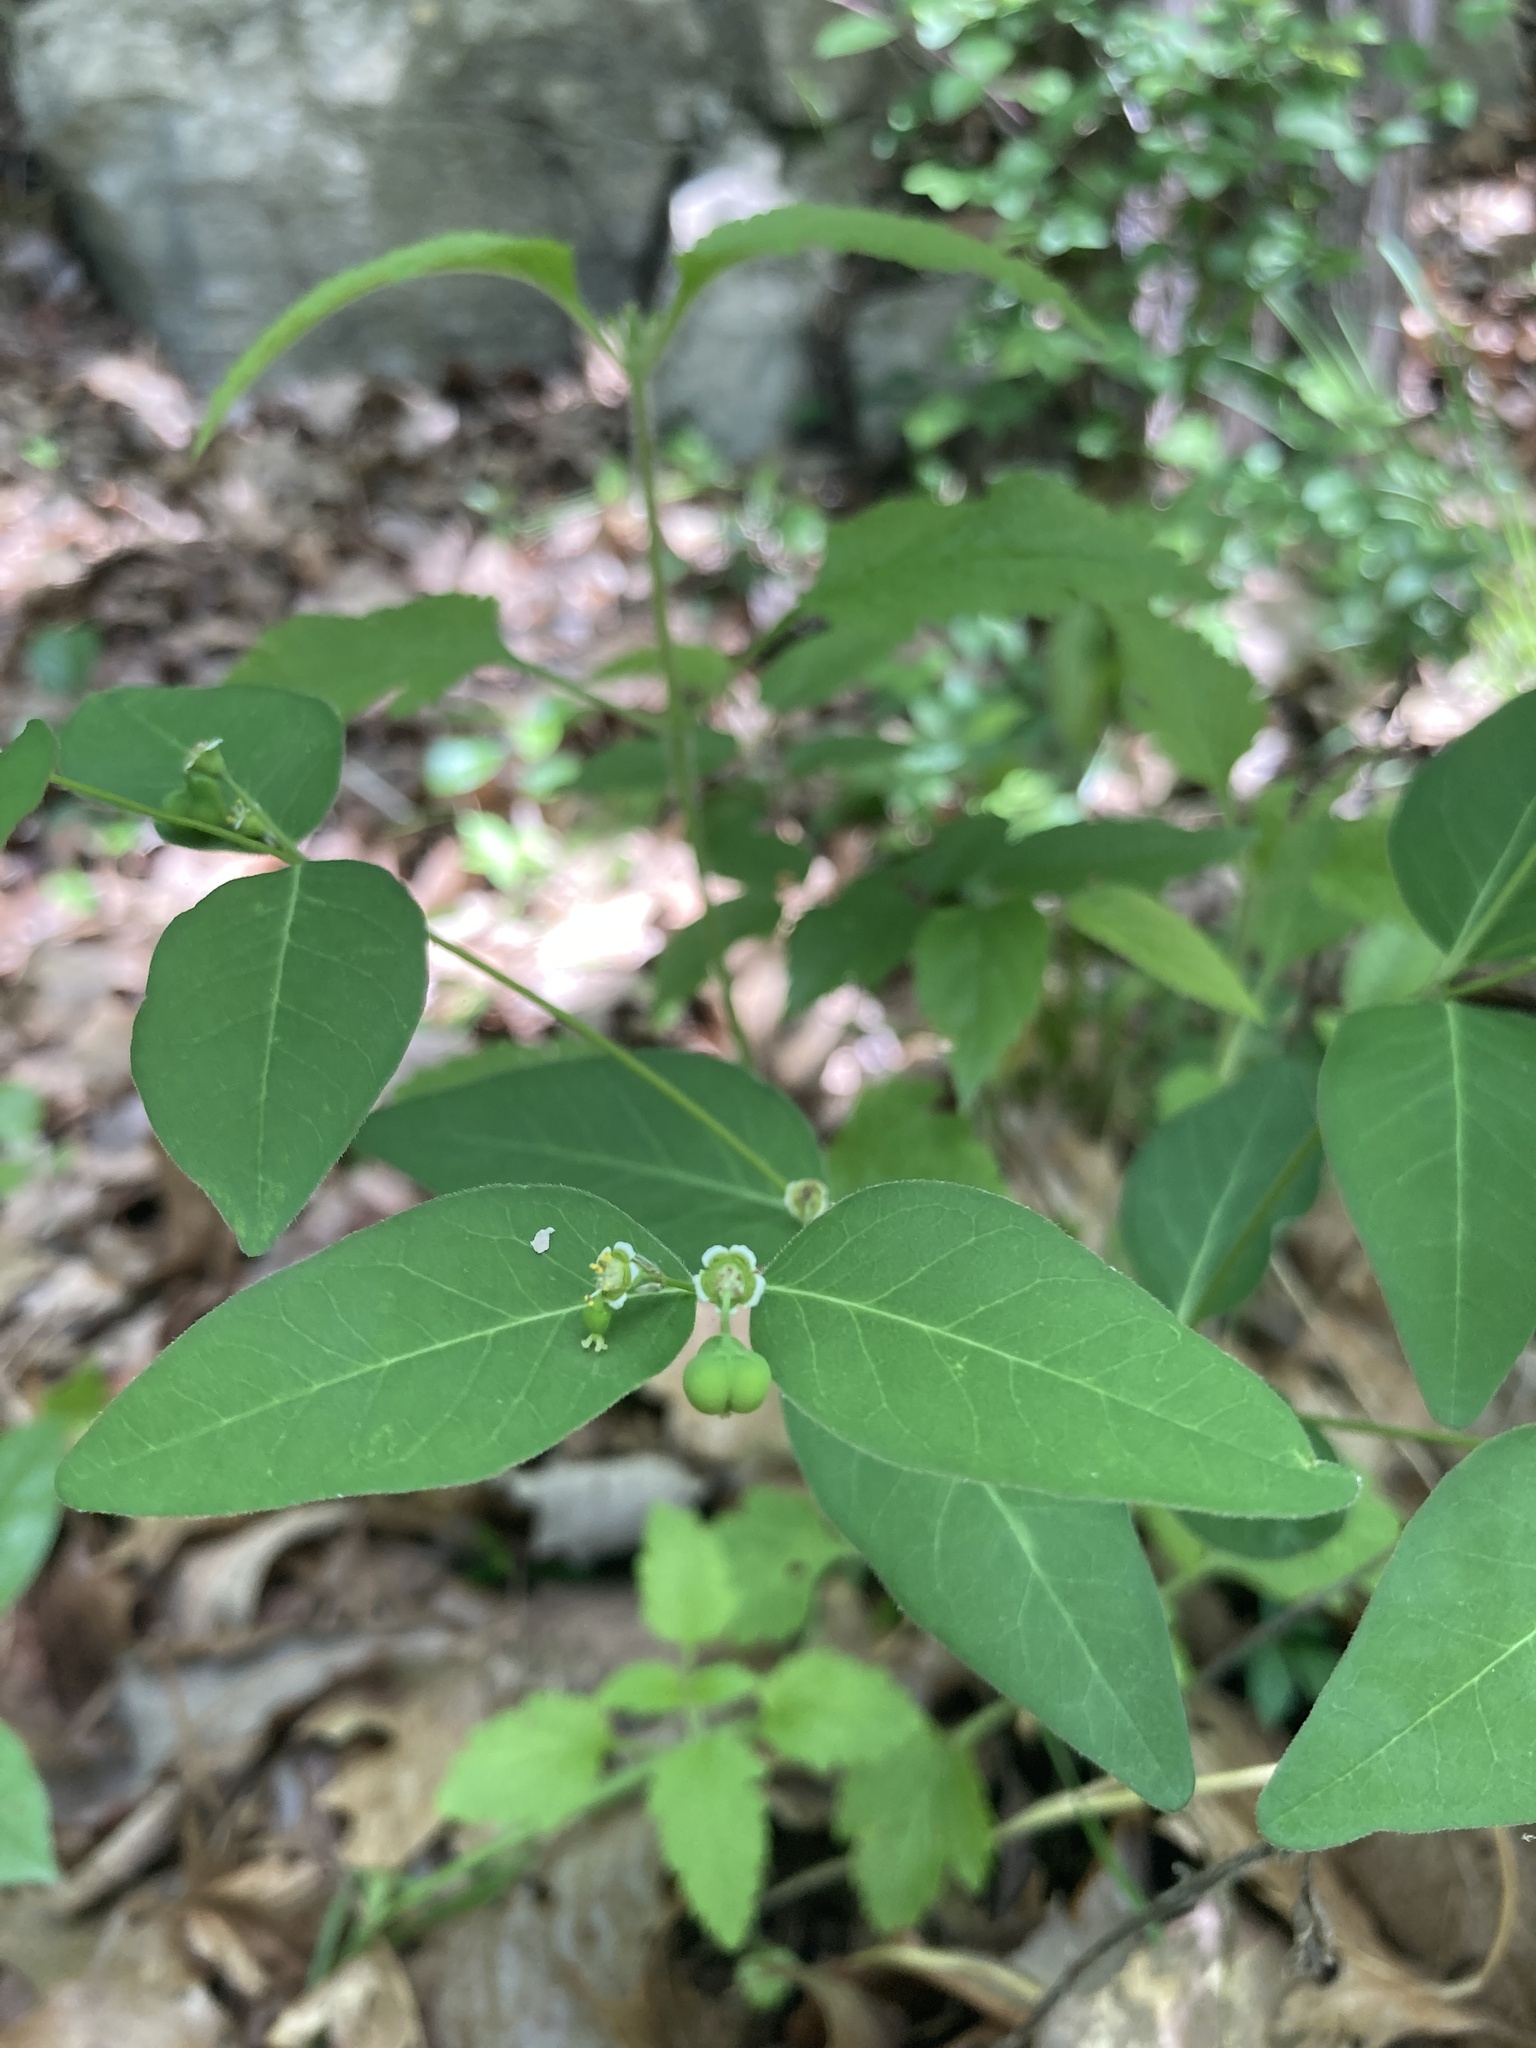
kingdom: Plantae
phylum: Tracheophyta
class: Magnoliopsida
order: Malpighiales
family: Euphorbiaceae
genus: Euphorbia
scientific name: Euphorbia mercurialina
